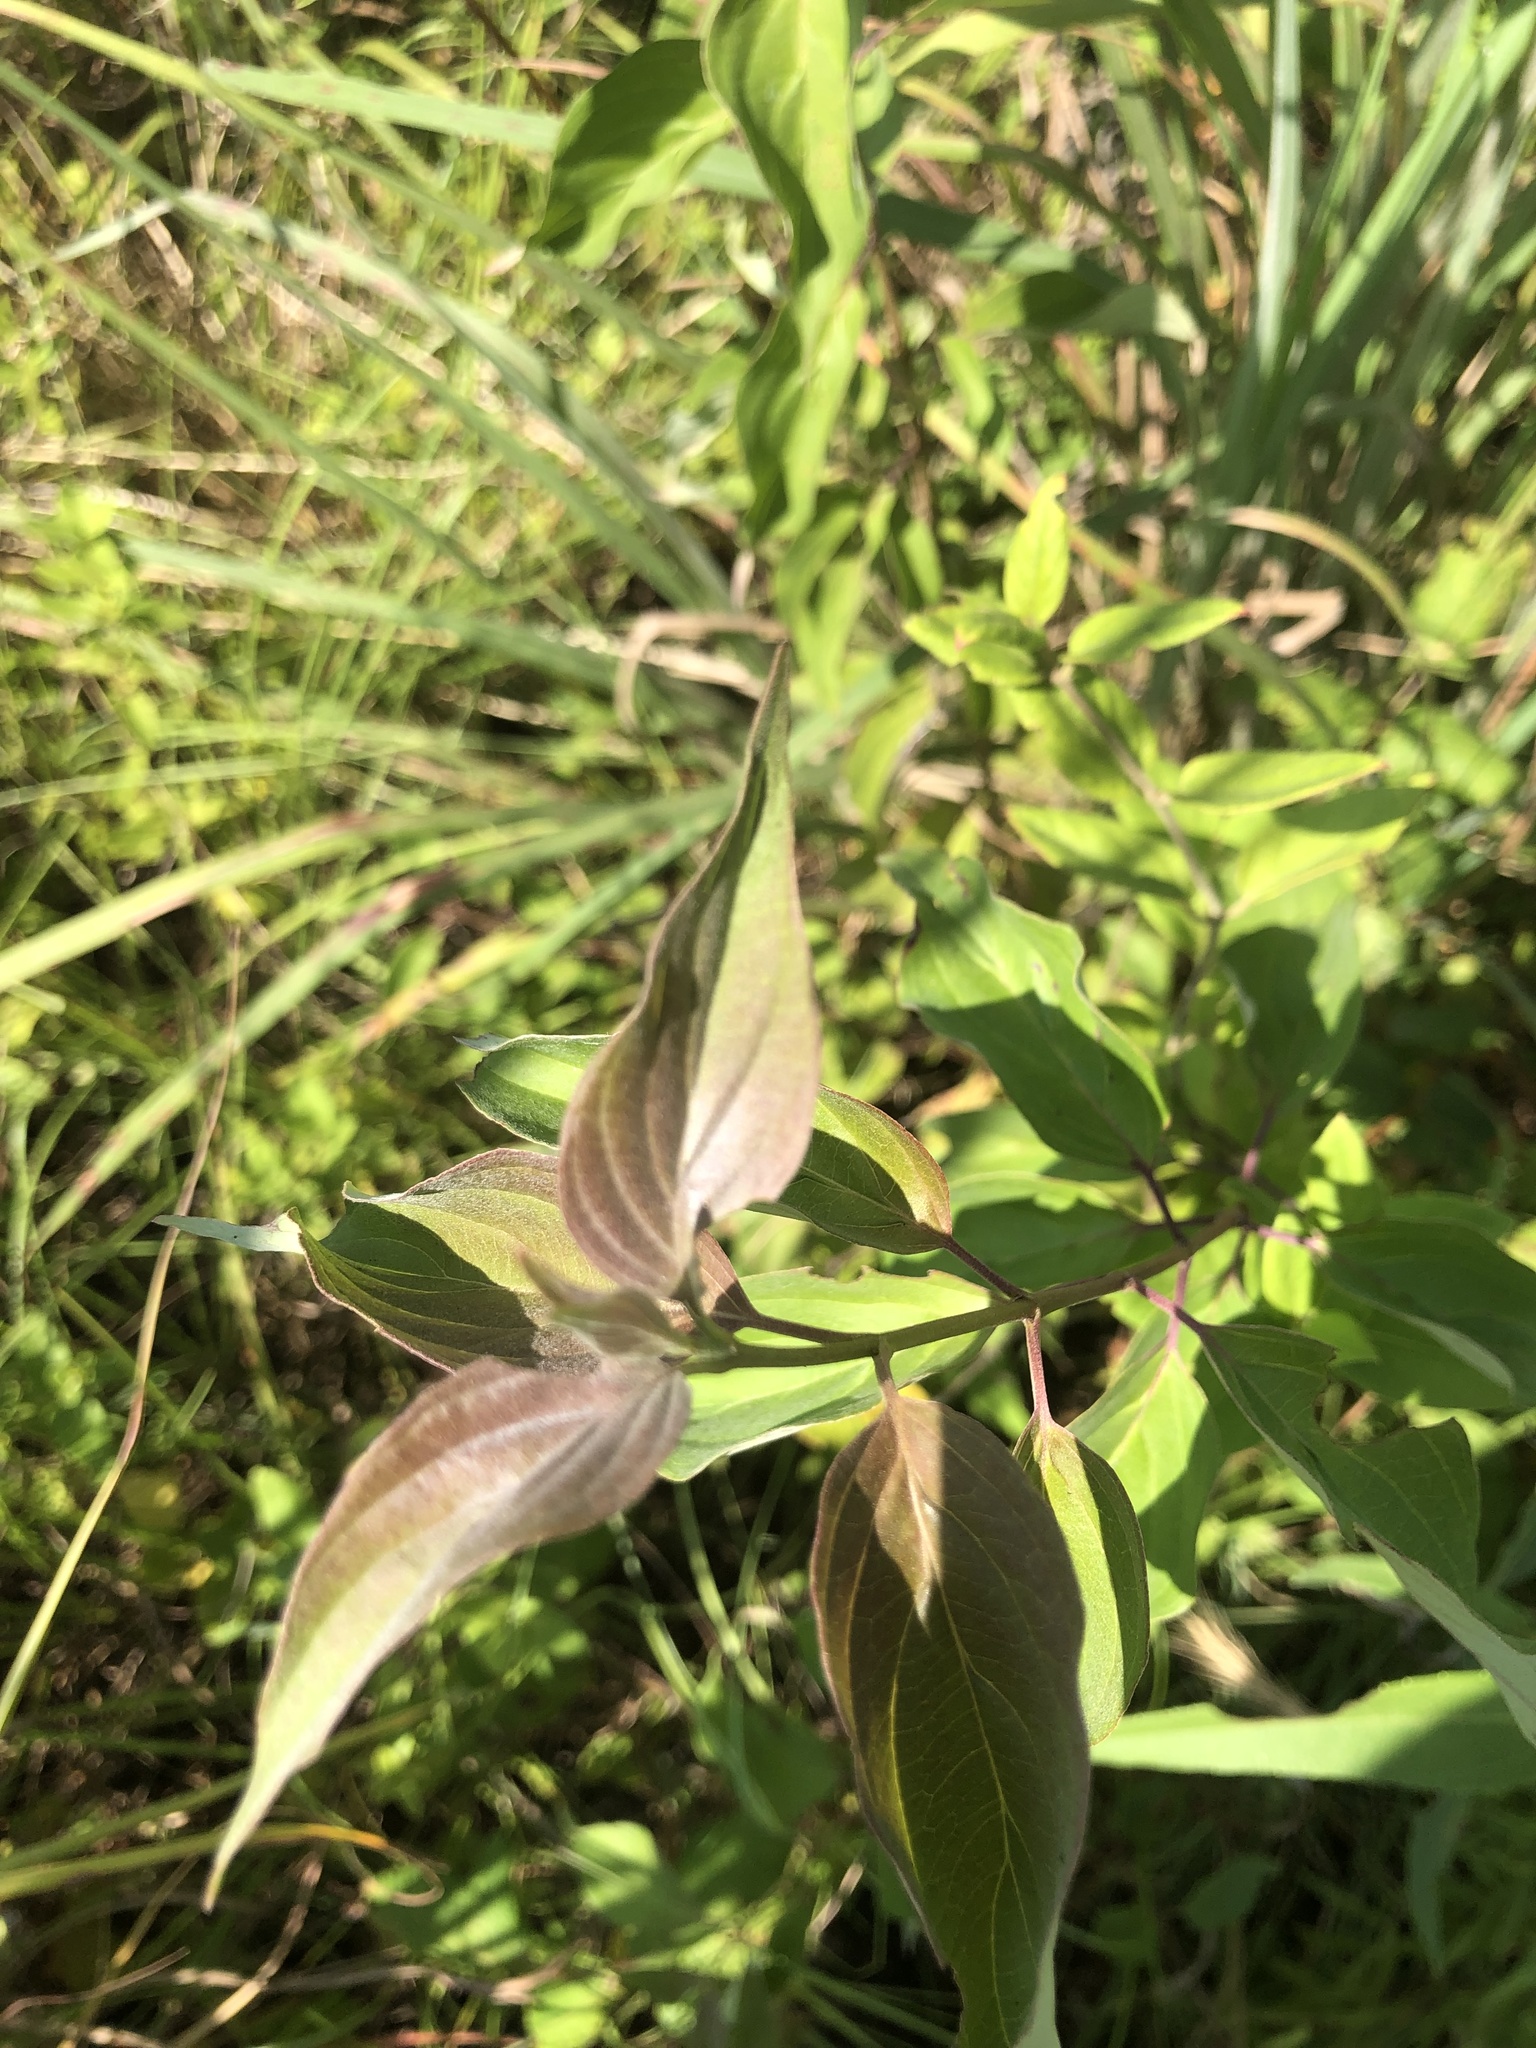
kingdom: Plantae
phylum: Tracheophyta
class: Magnoliopsida
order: Cornales
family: Cornaceae
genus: Cornus
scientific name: Cornus drummondii
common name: Rough-leaf dogwood
